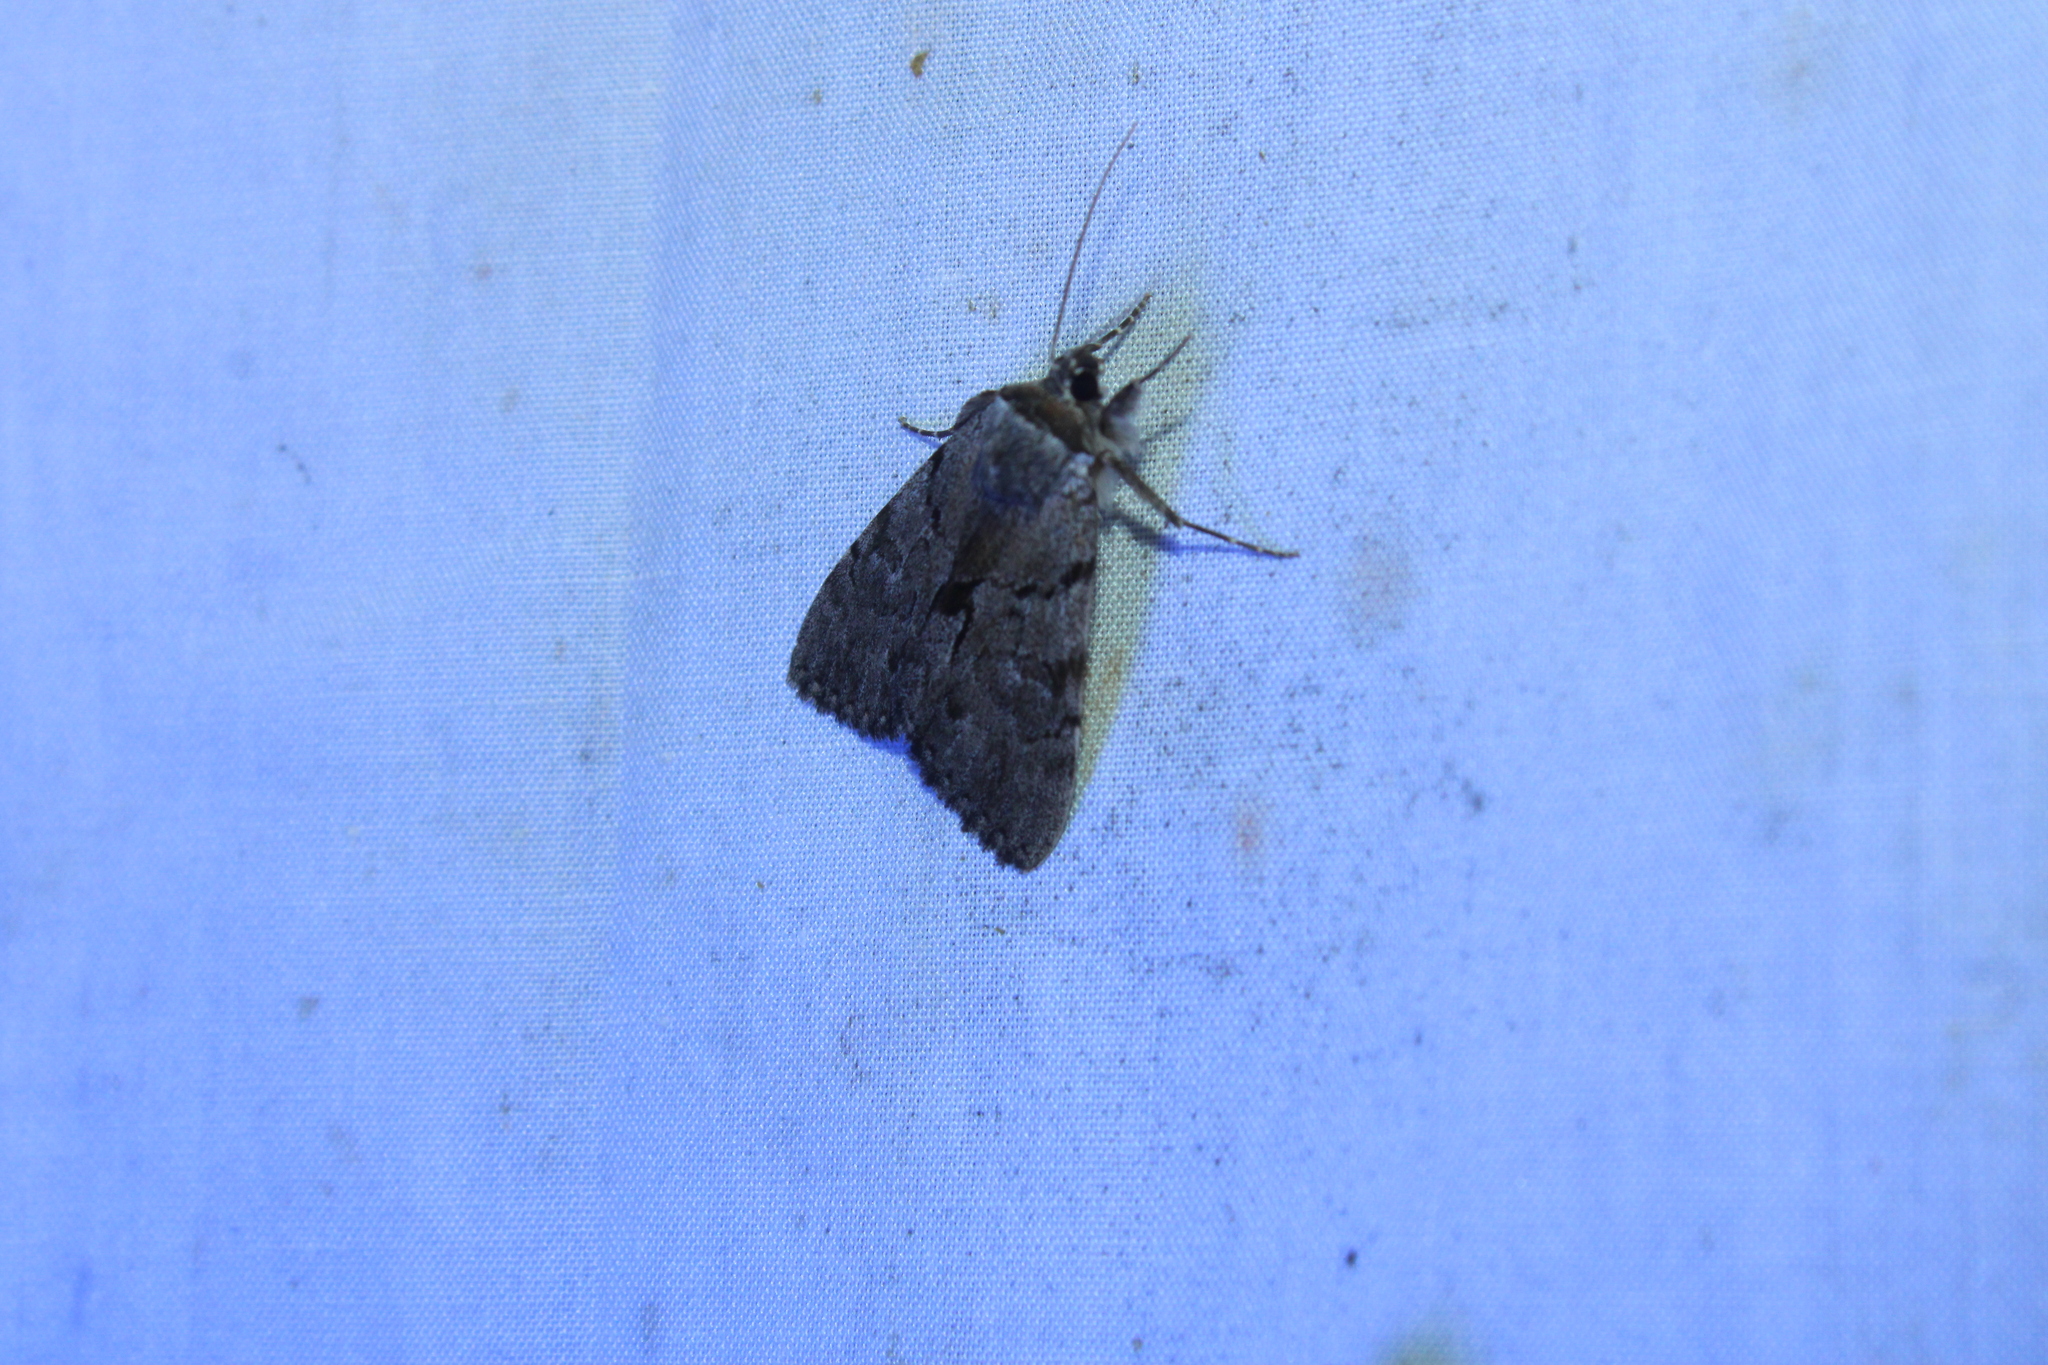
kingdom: Animalia
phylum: Arthropoda
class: Insecta
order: Lepidoptera
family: Erebidae
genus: Catocala
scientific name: Catocala sordida
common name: Sordid underwing
